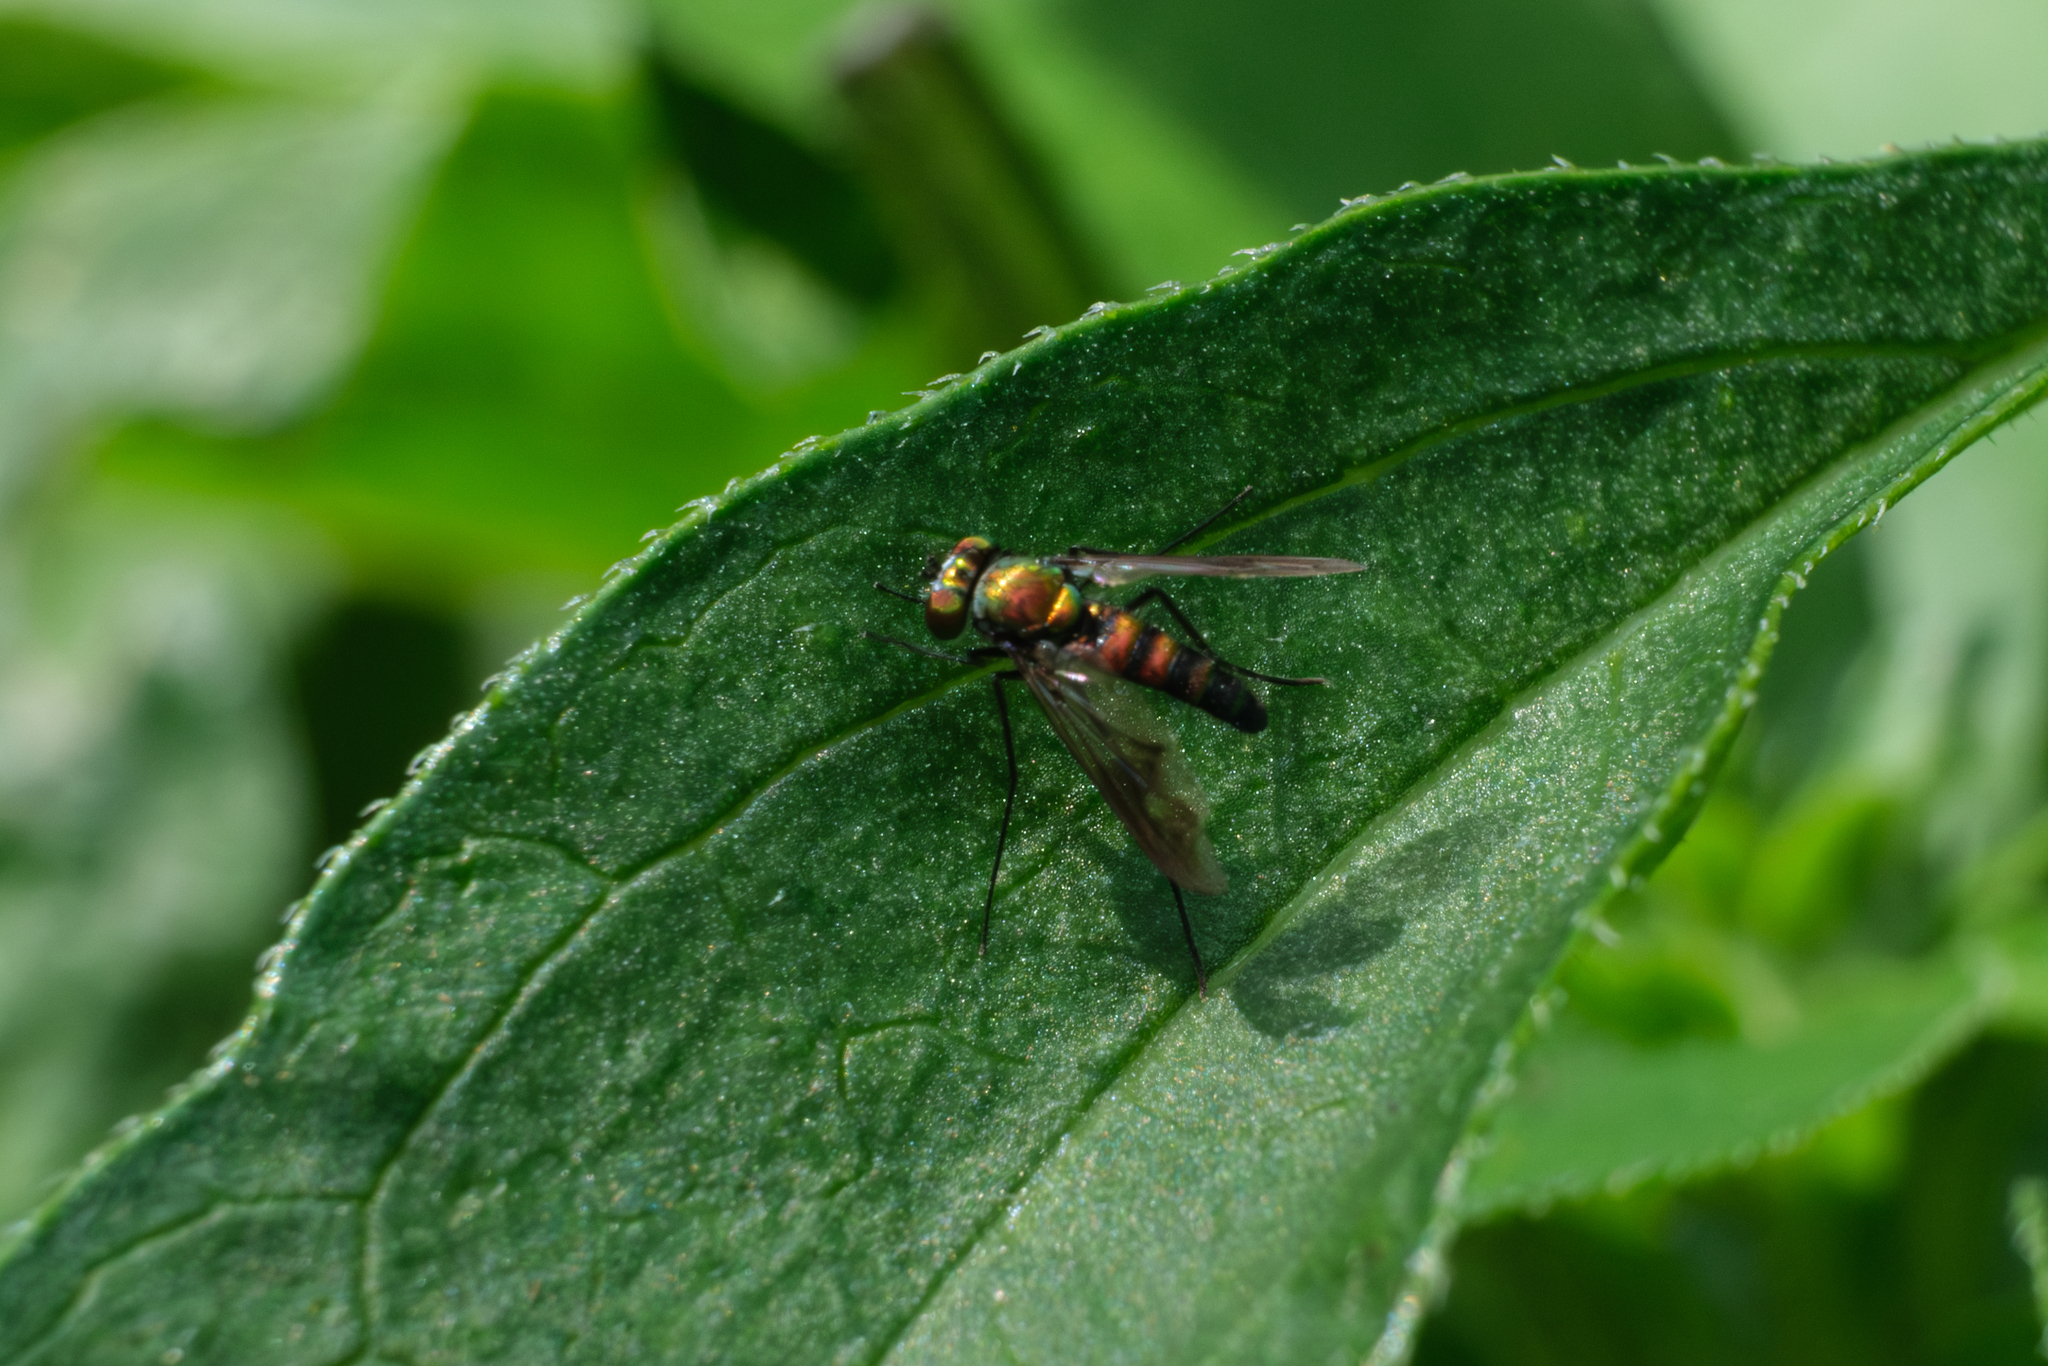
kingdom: Animalia
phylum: Arthropoda
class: Insecta
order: Diptera
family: Dolichopodidae
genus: Condylostylus
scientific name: Condylostylus patibulatus
